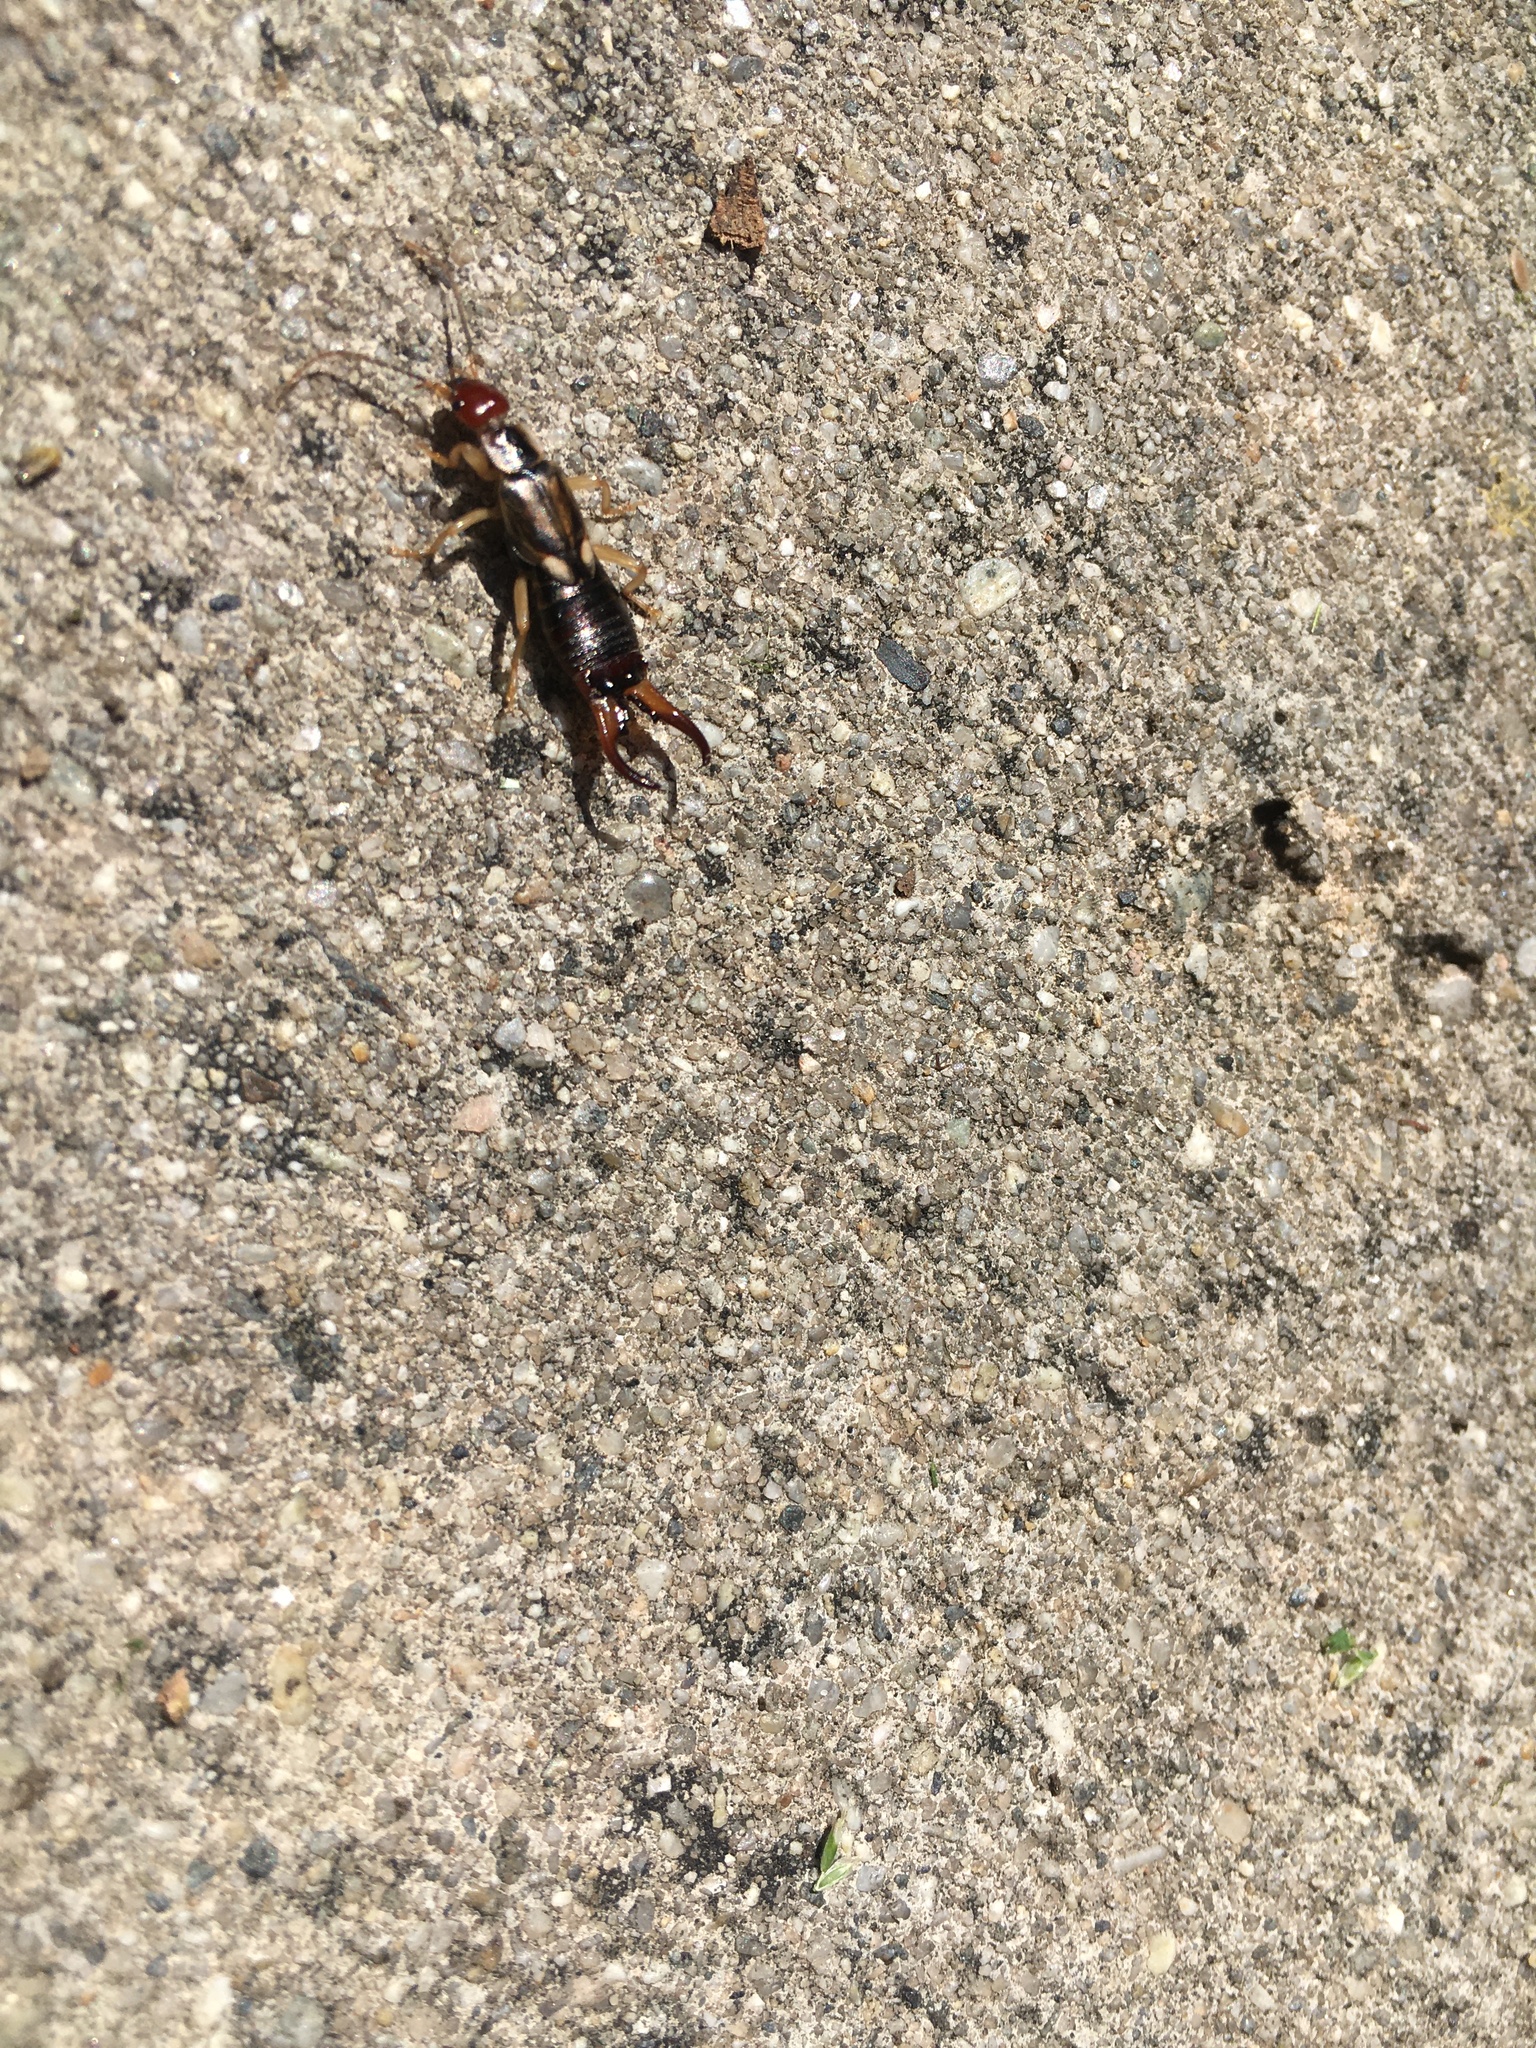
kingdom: Animalia
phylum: Arthropoda
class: Insecta
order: Dermaptera
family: Forficulidae
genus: Forficula
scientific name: Forficula
